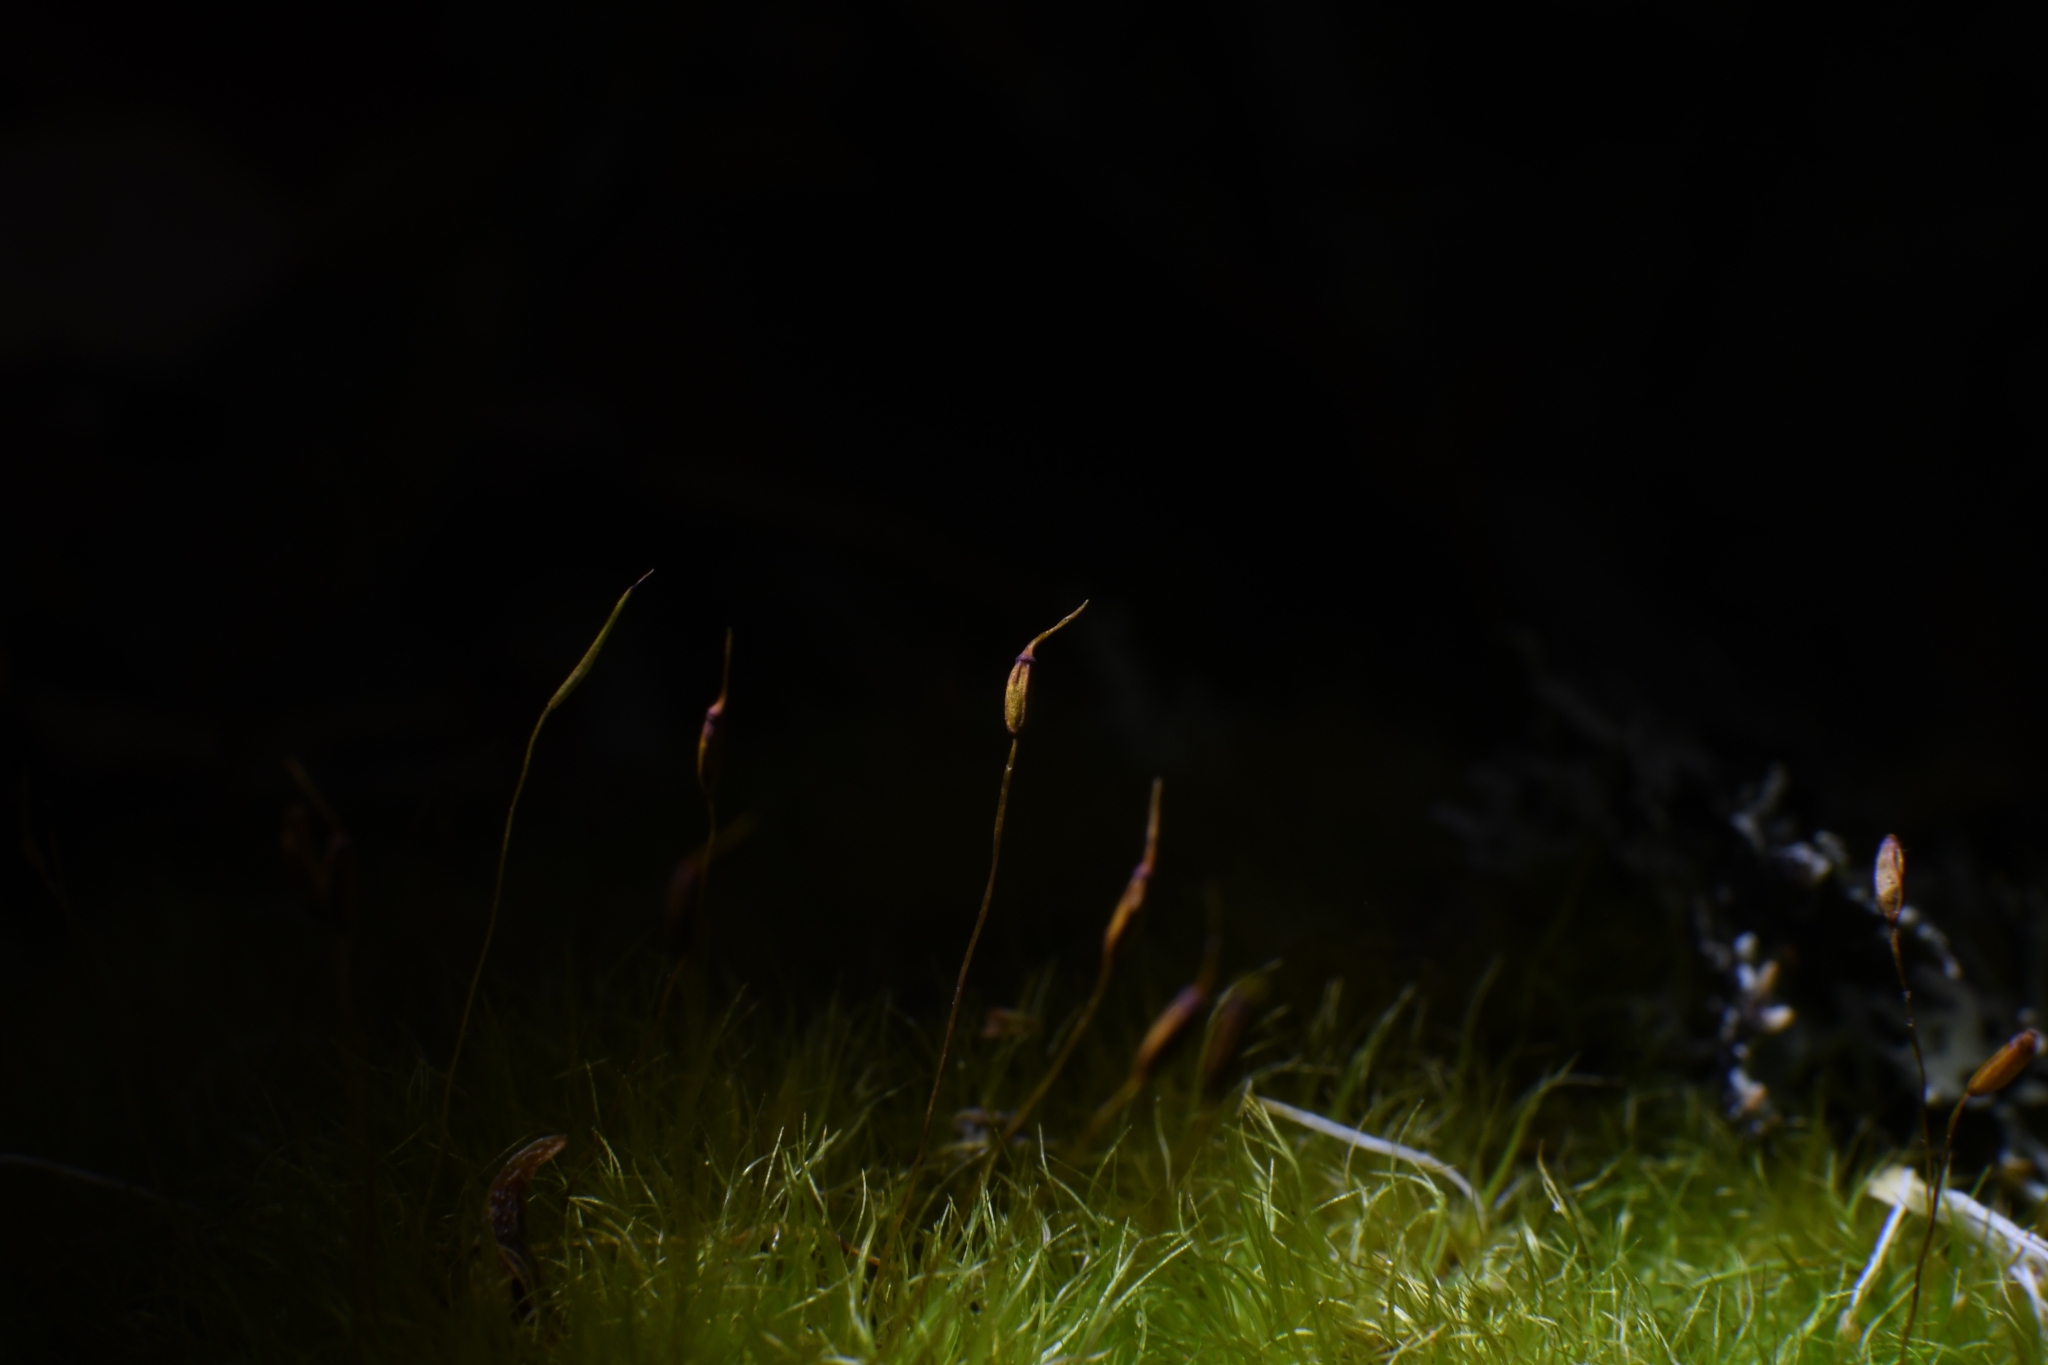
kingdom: Plantae
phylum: Bryophyta
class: Bryopsida
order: Dicranales
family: Dicranaceae
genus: Dicranoloma
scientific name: Dicranoloma diaphanoneuron
